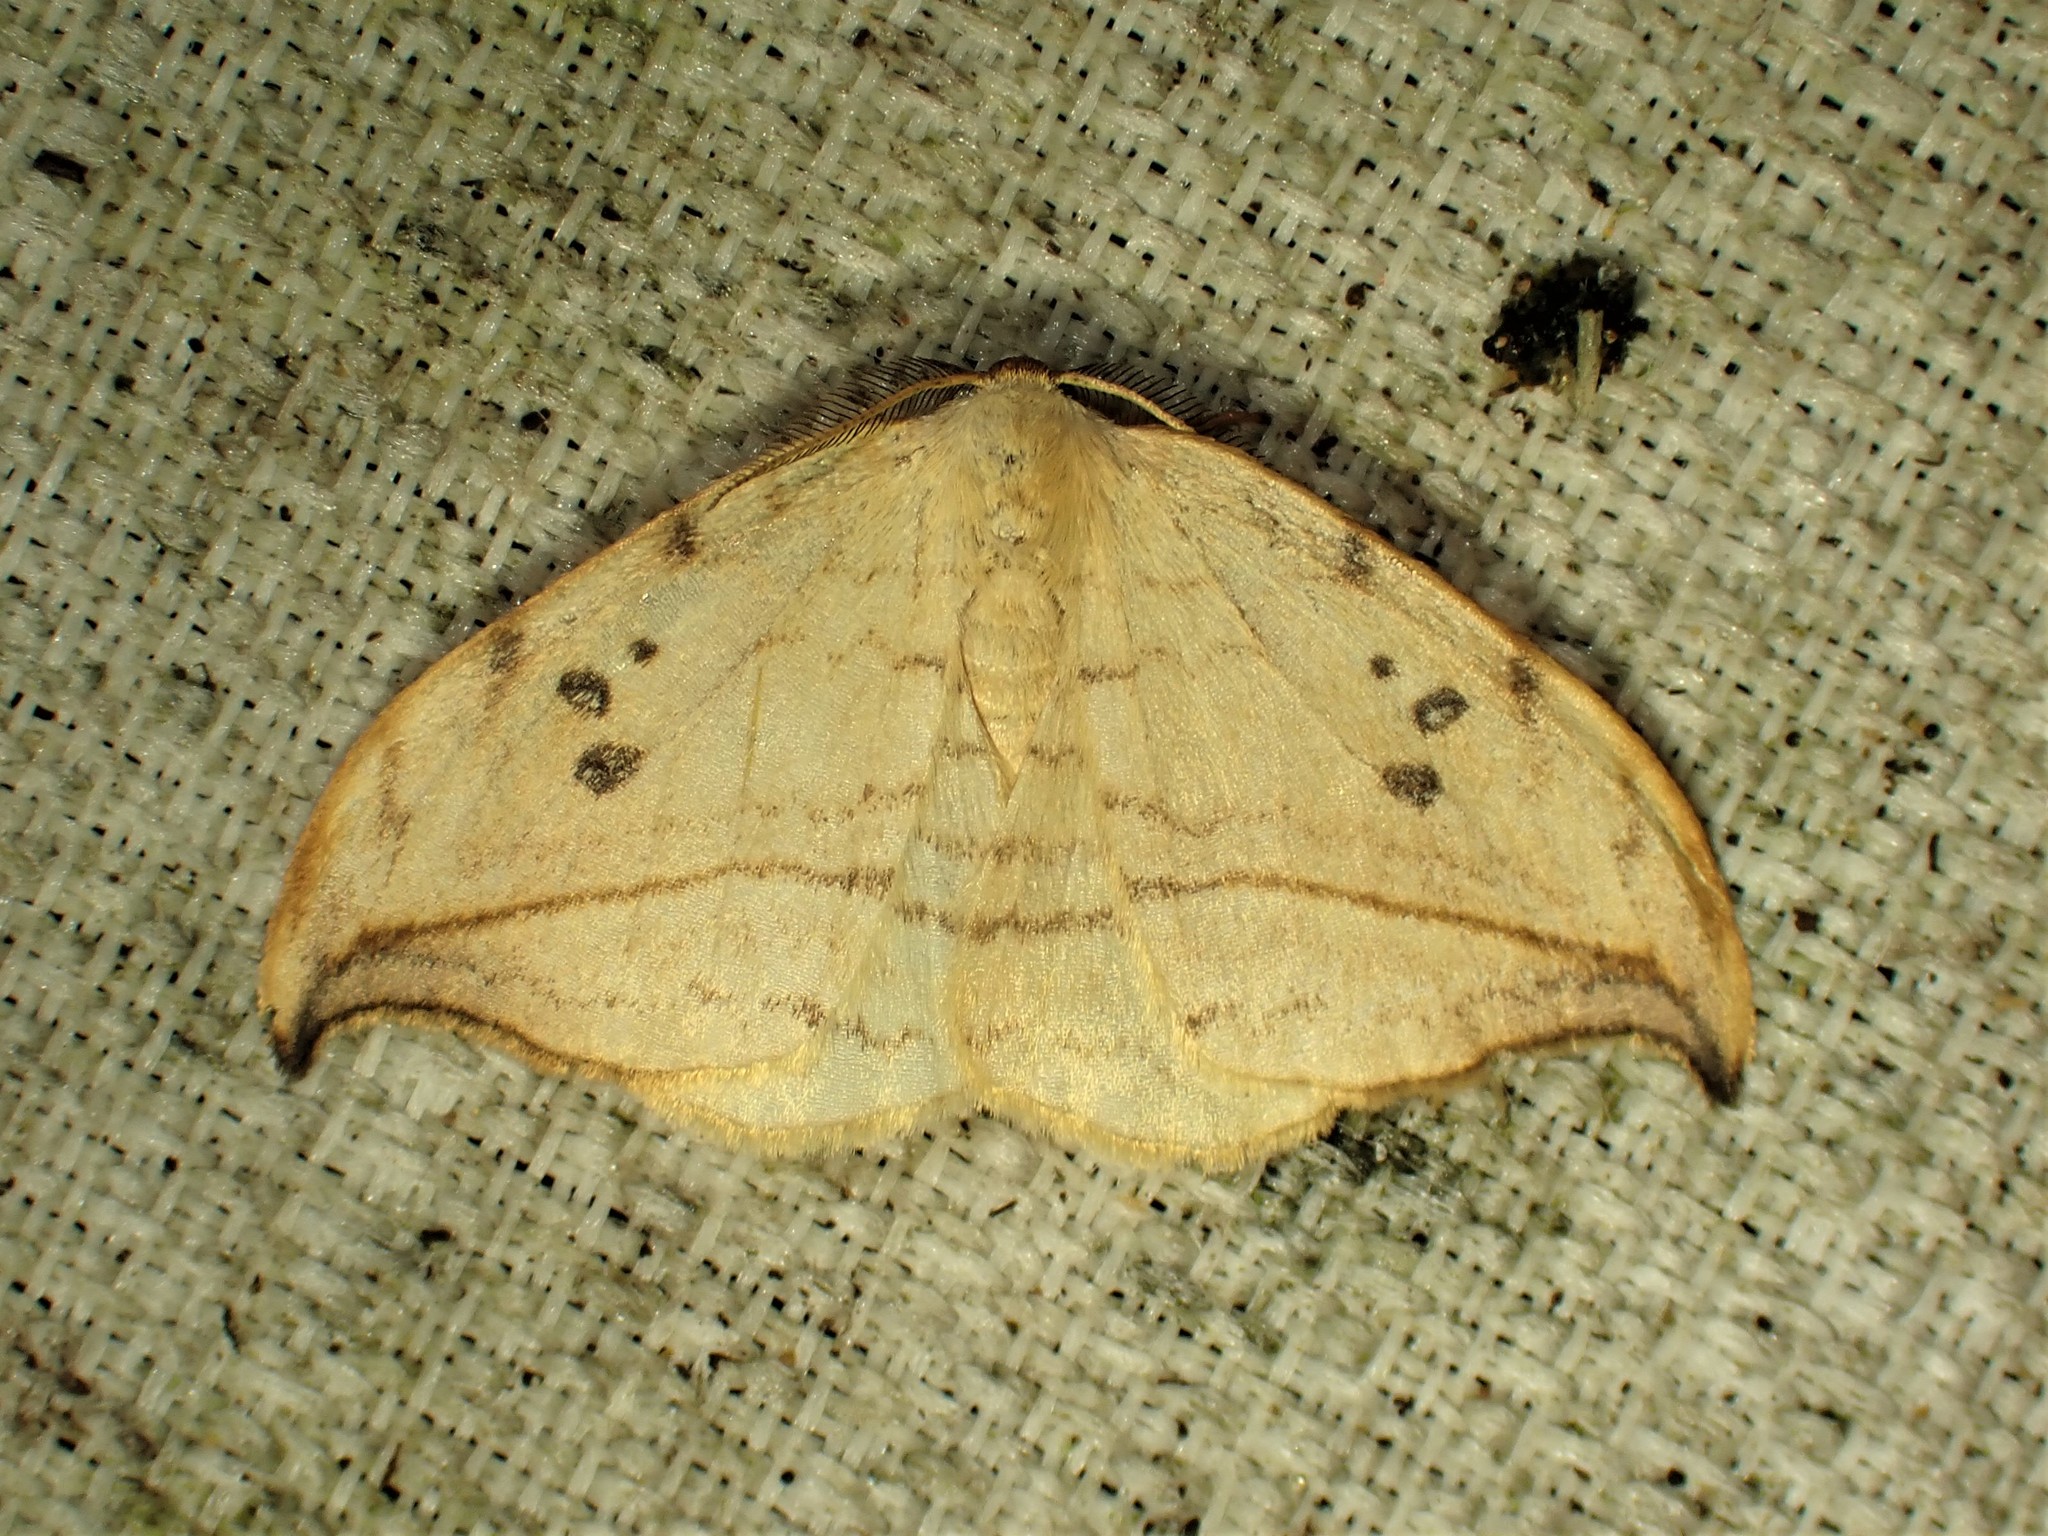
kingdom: Animalia
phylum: Arthropoda
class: Insecta
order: Lepidoptera
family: Drepanidae
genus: Drepana
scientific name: Drepana arcuata
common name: Arched hooktip moth
